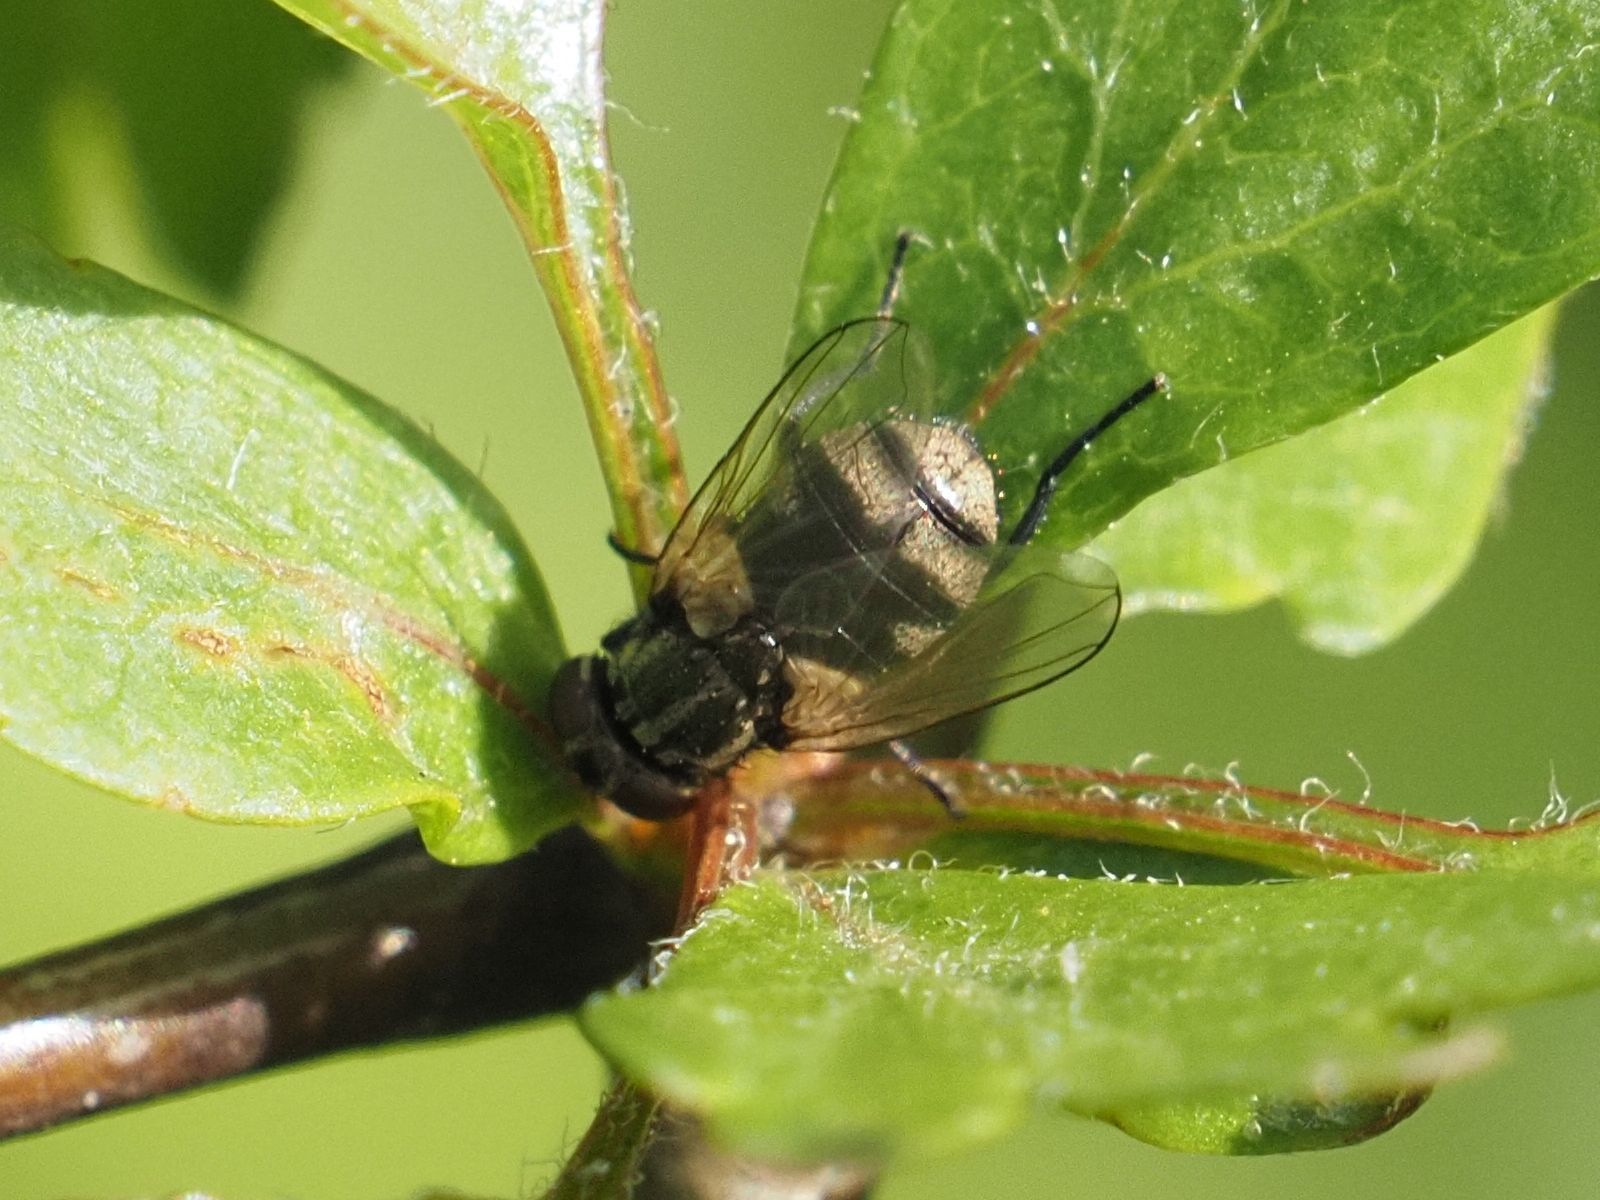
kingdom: Animalia
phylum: Arthropoda
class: Insecta
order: Diptera
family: Muscidae
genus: Musca
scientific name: Musca tempestiva
